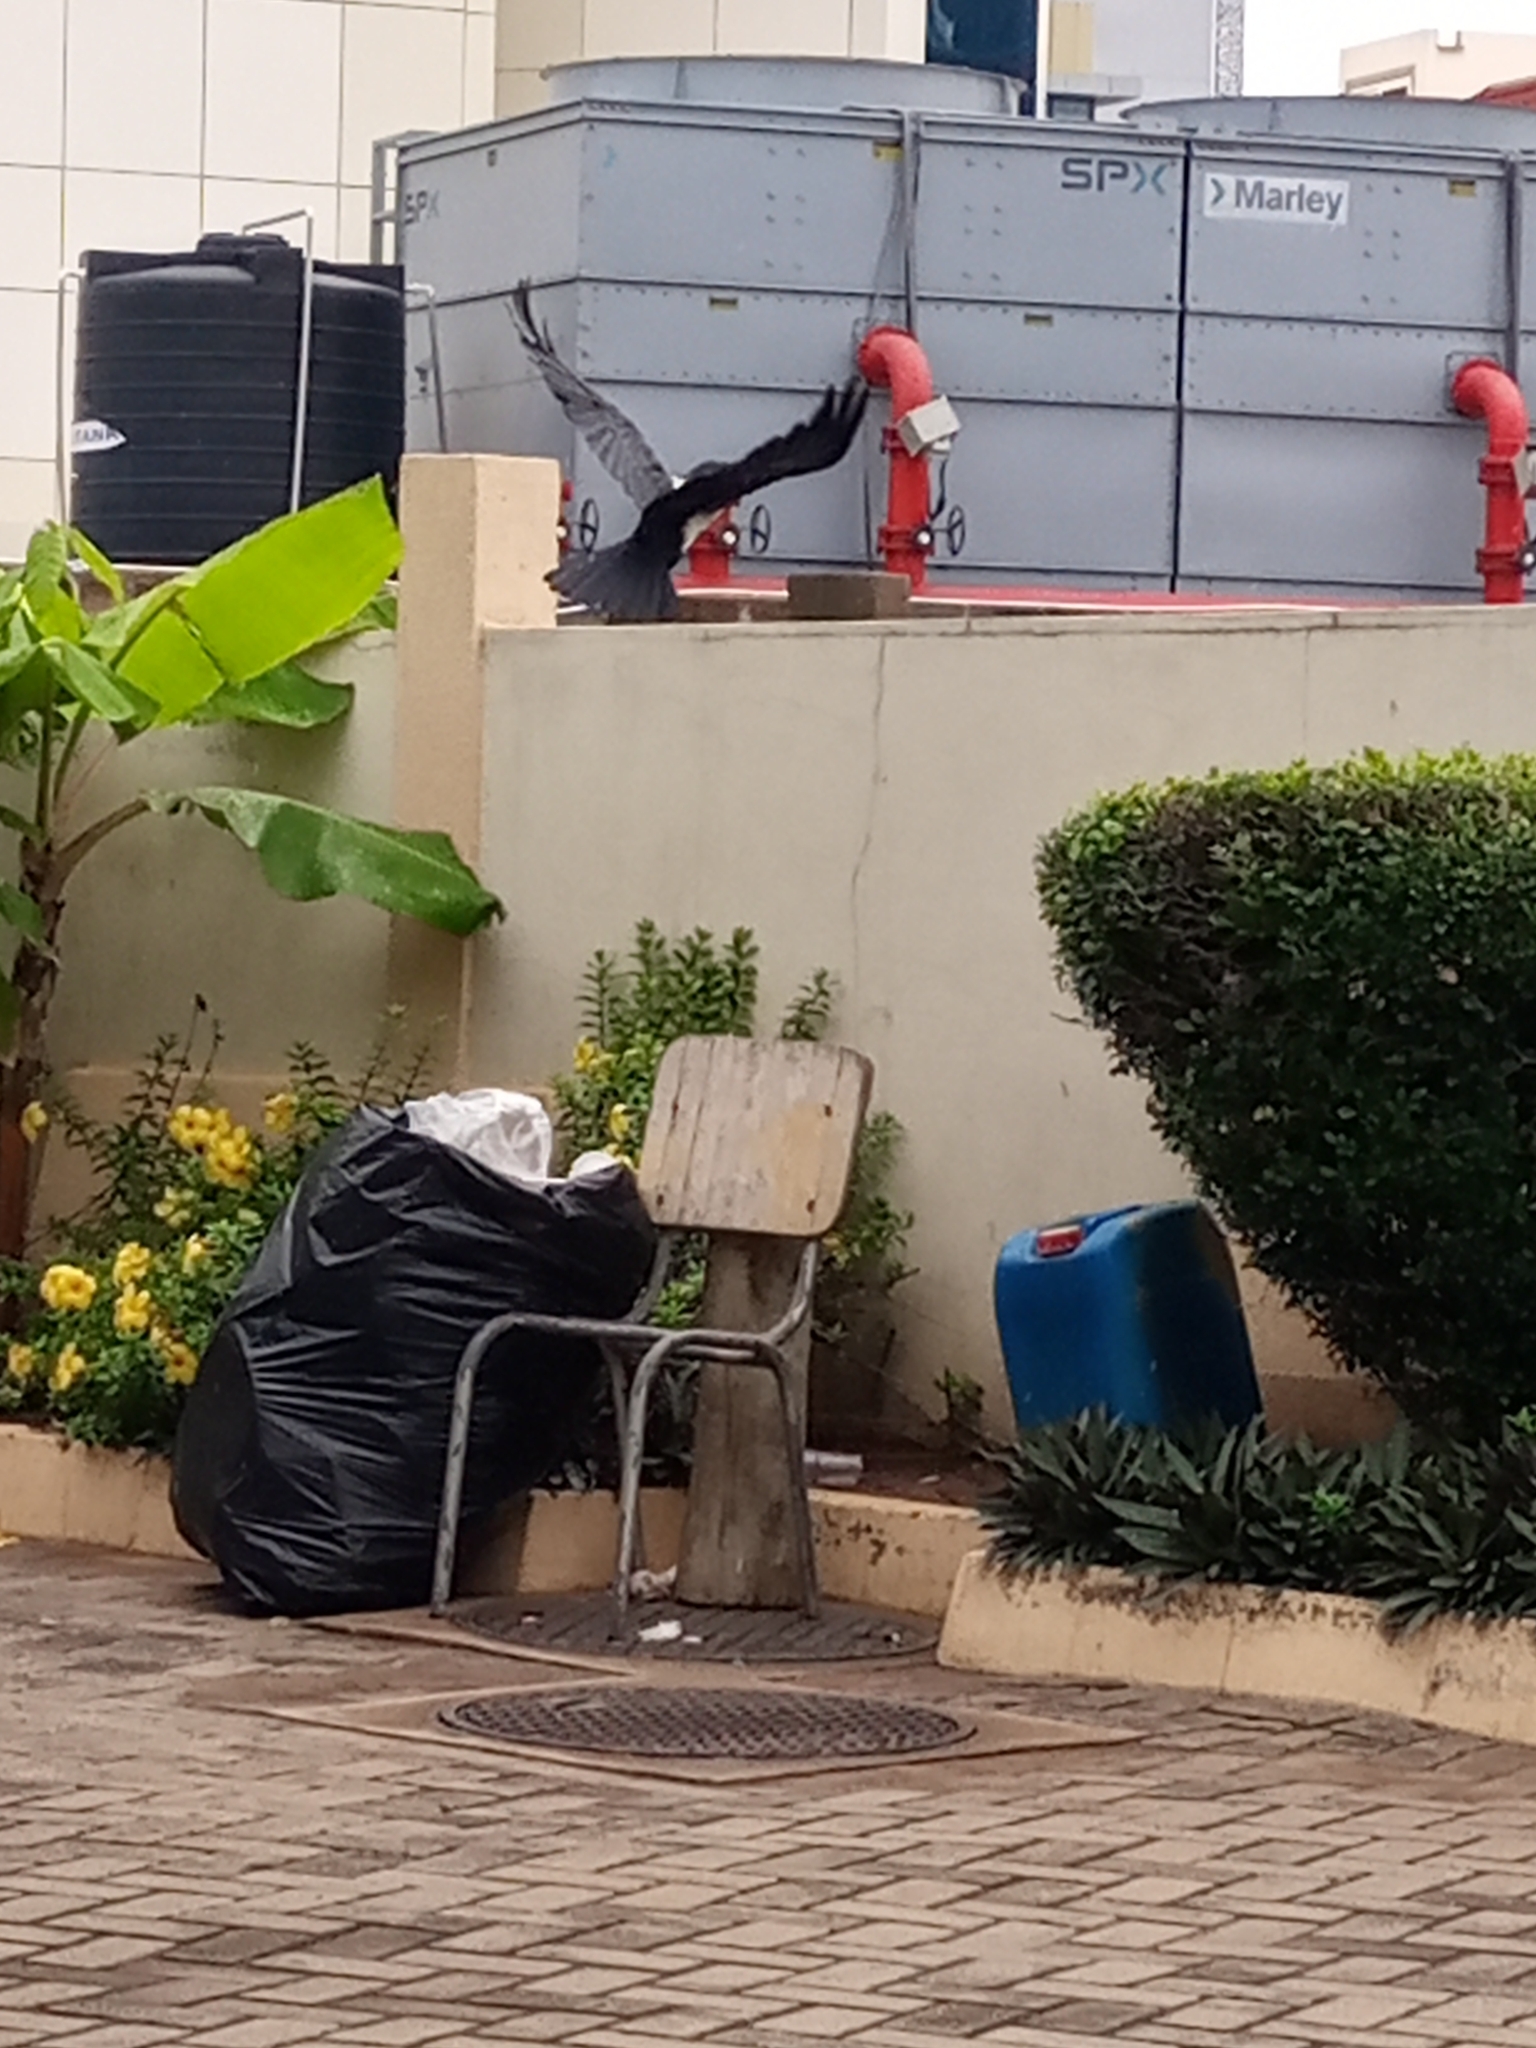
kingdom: Animalia
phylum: Chordata
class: Aves
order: Passeriformes
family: Corvidae
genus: Corvus
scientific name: Corvus albus
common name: Pied crow
